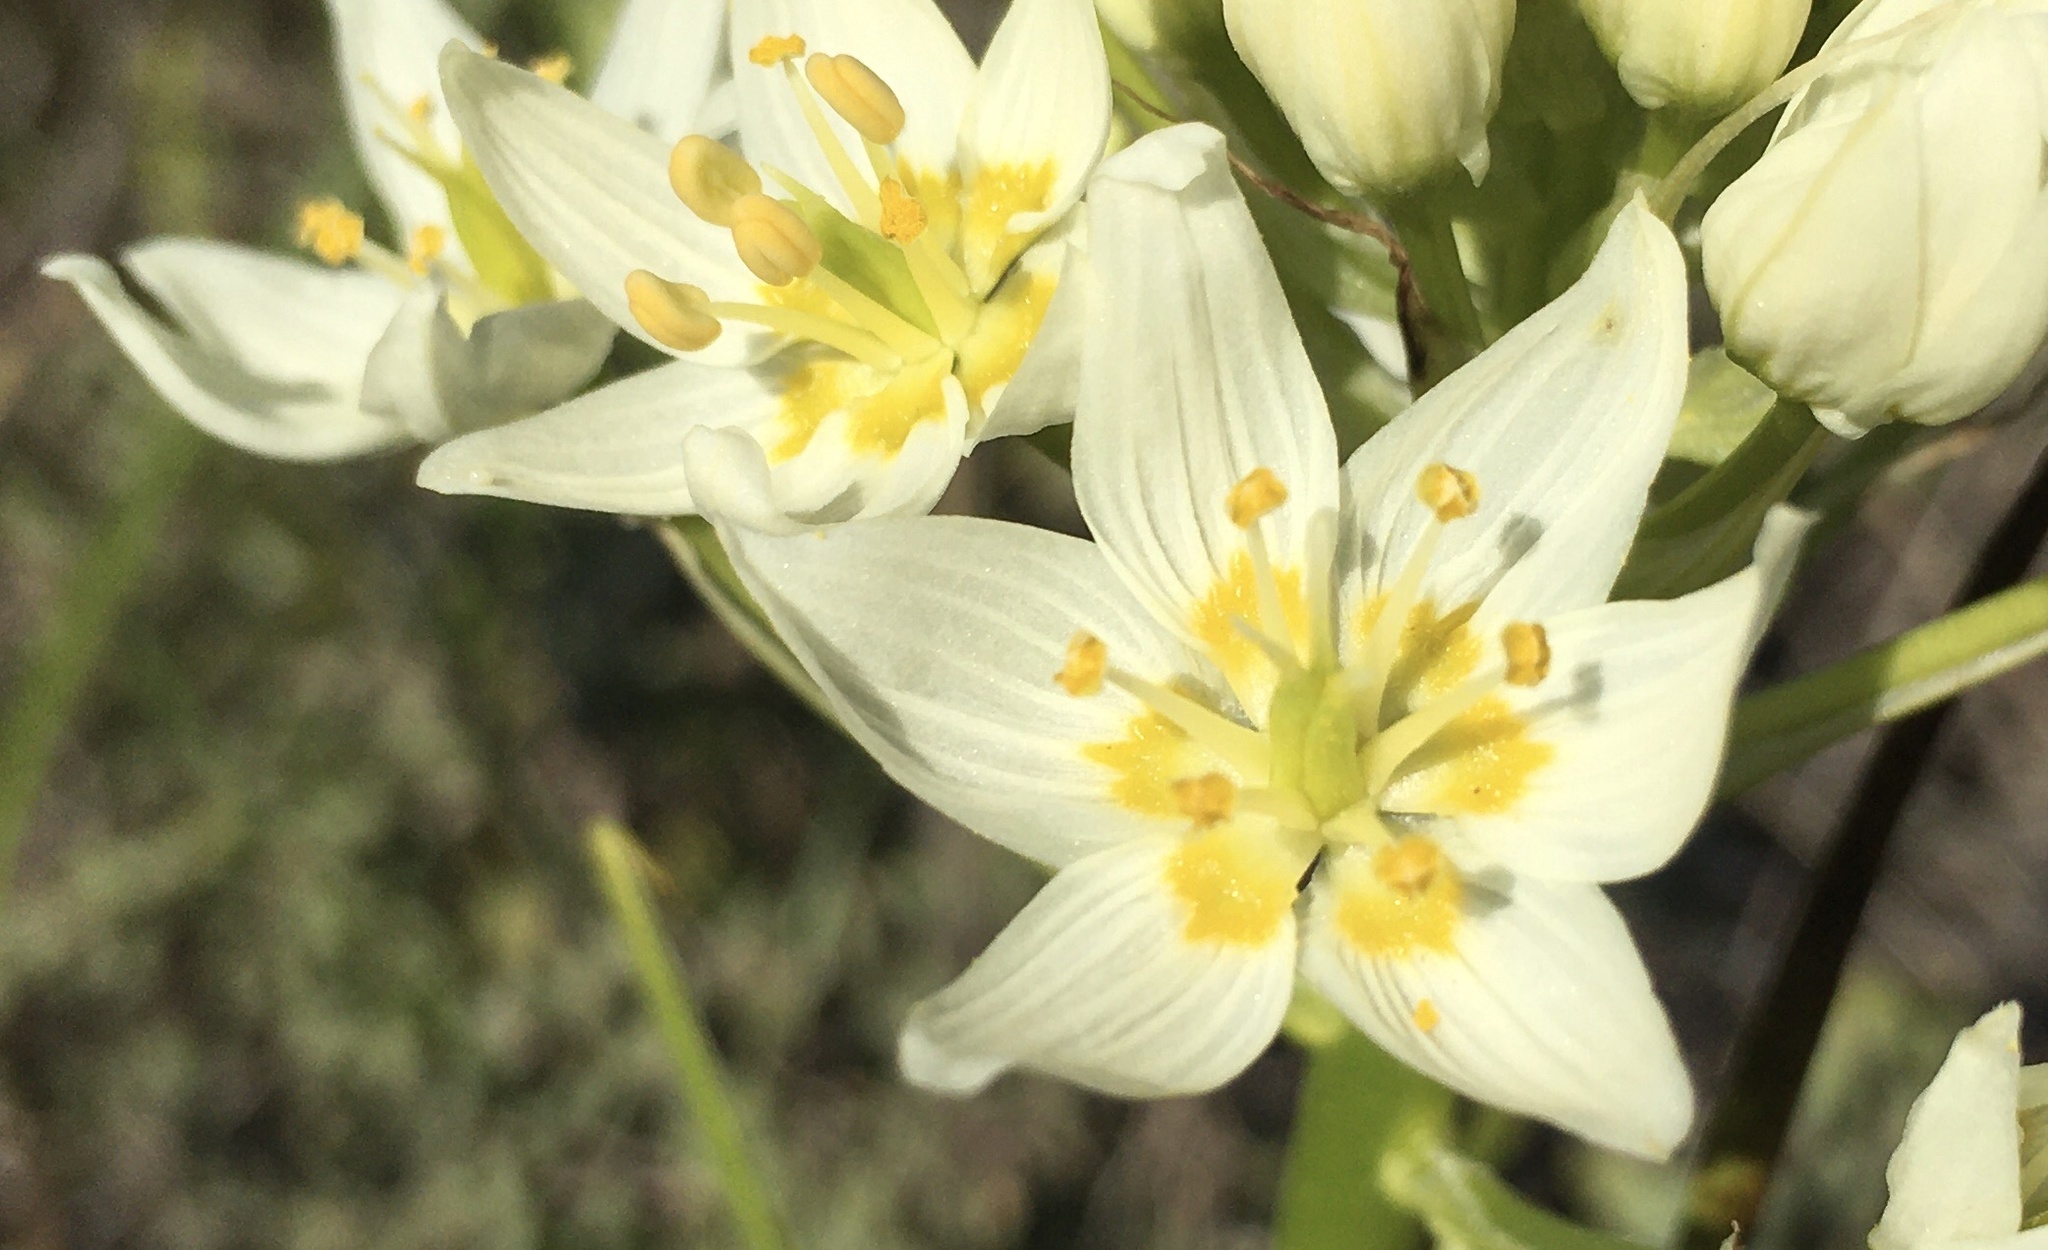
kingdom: Plantae
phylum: Tracheophyta
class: Liliopsida
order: Liliales
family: Melanthiaceae
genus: Toxicoscordion
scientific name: Toxicoscordion fremontii
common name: Fremont's death camas
